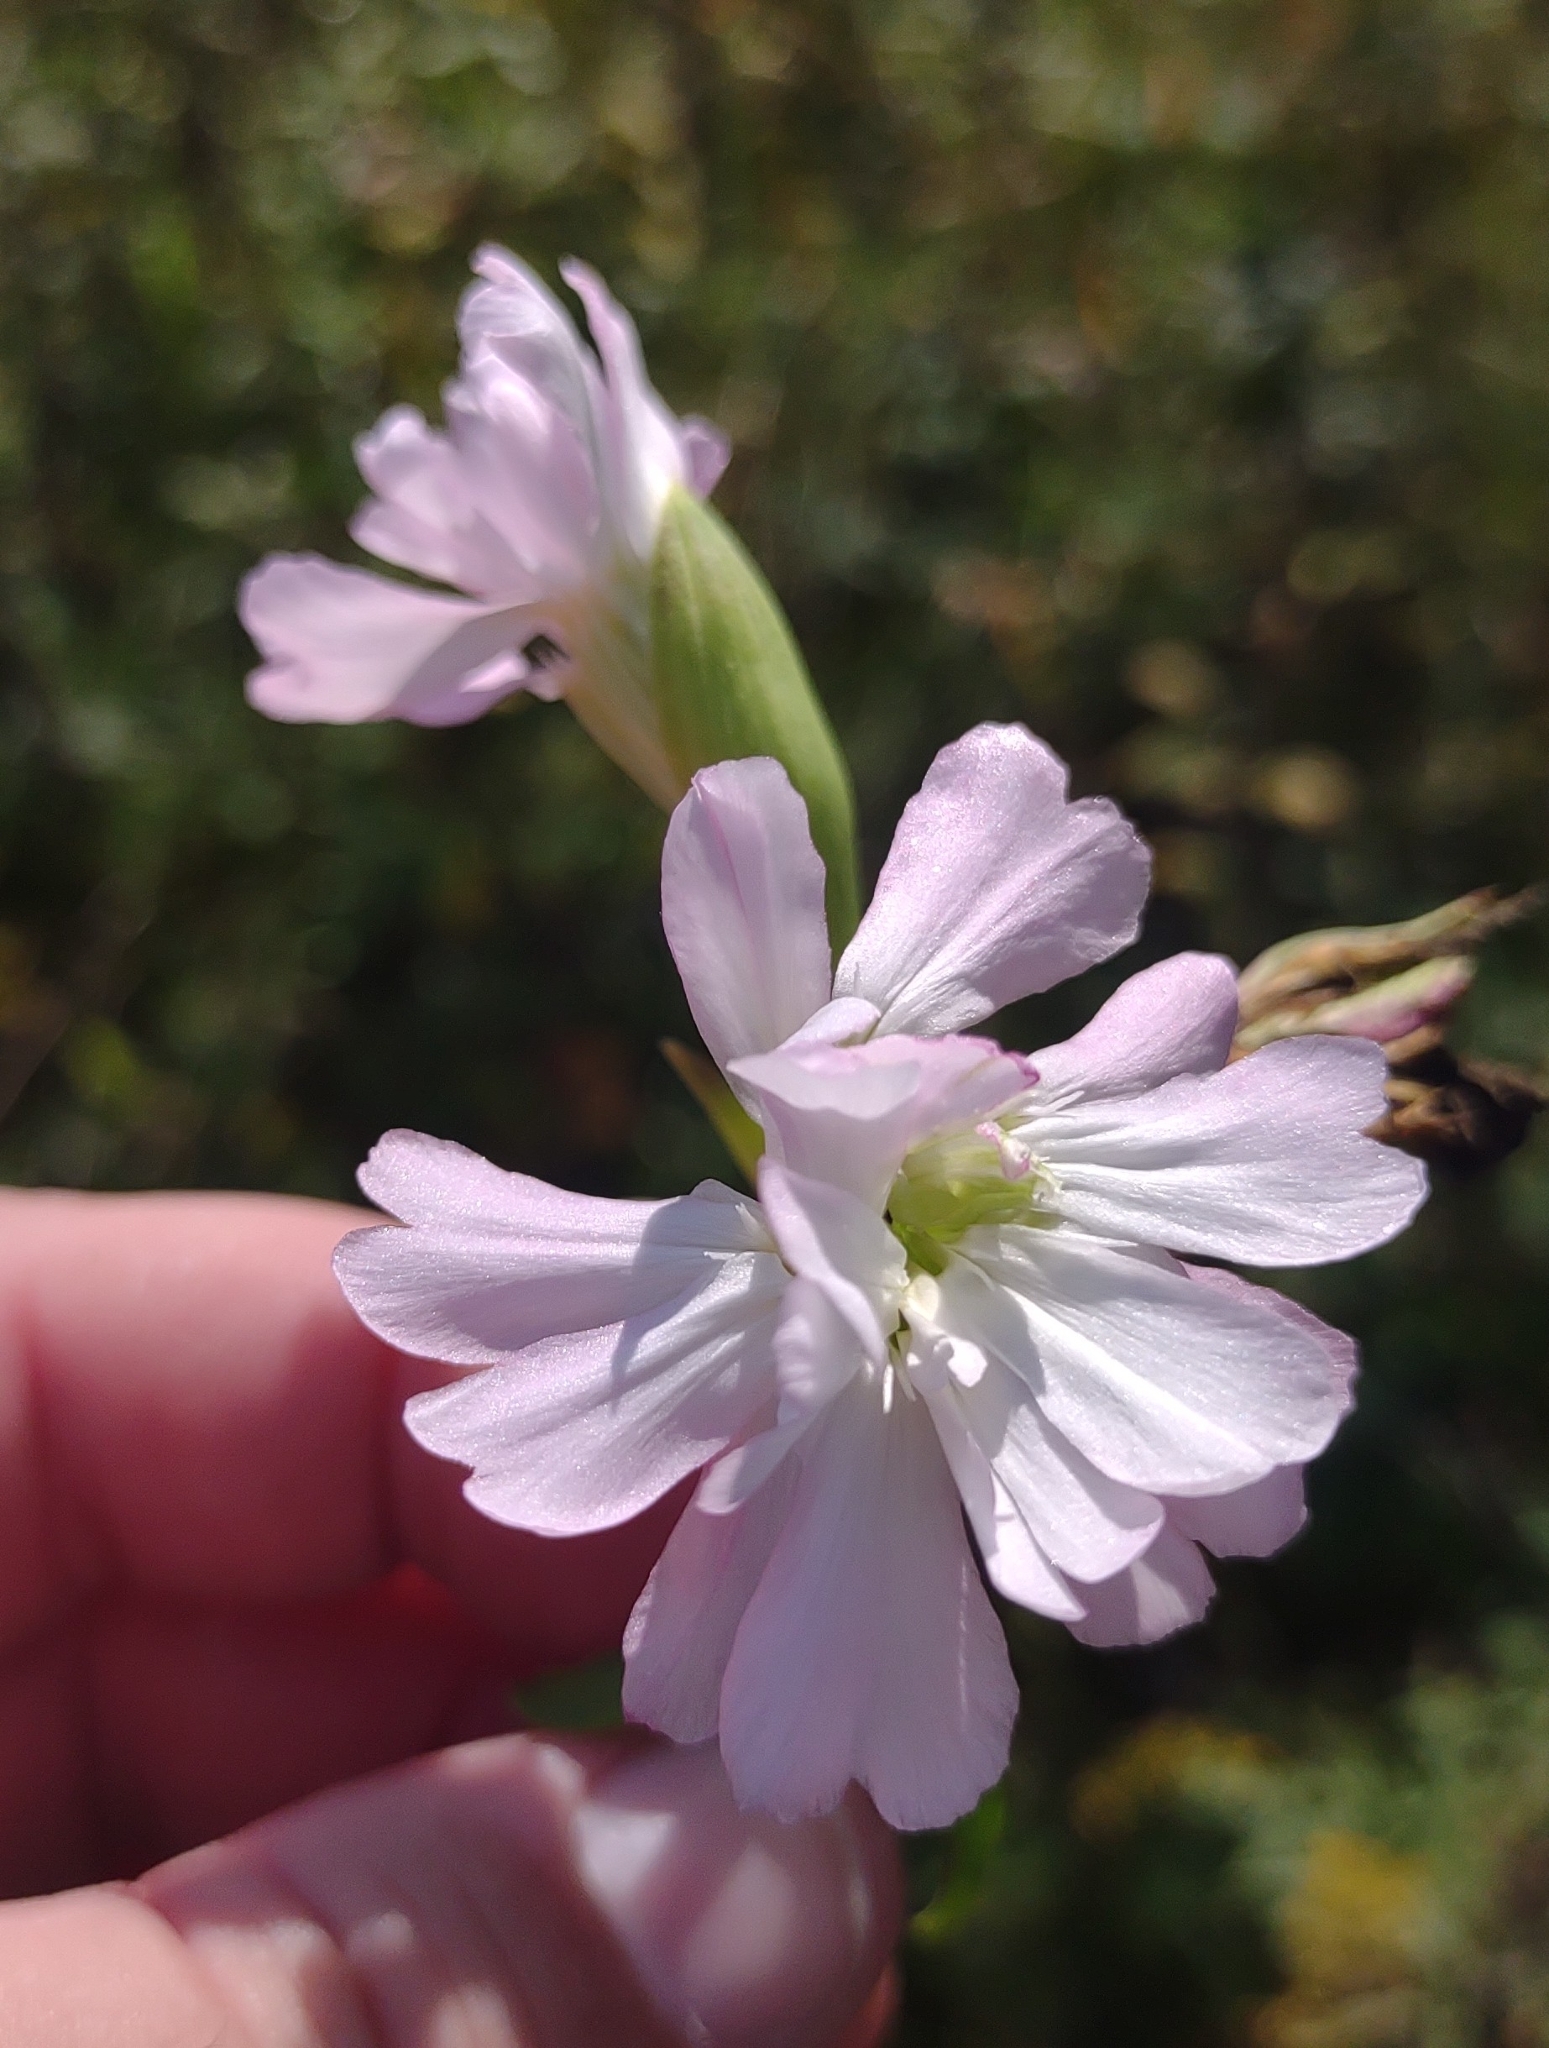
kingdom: Plantae
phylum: Tracheophyta
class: Magnoliopsida
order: Caryophyllales
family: Caryophyllaceae
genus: Saponaria
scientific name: Saponaria officinalis
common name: Soapwort
